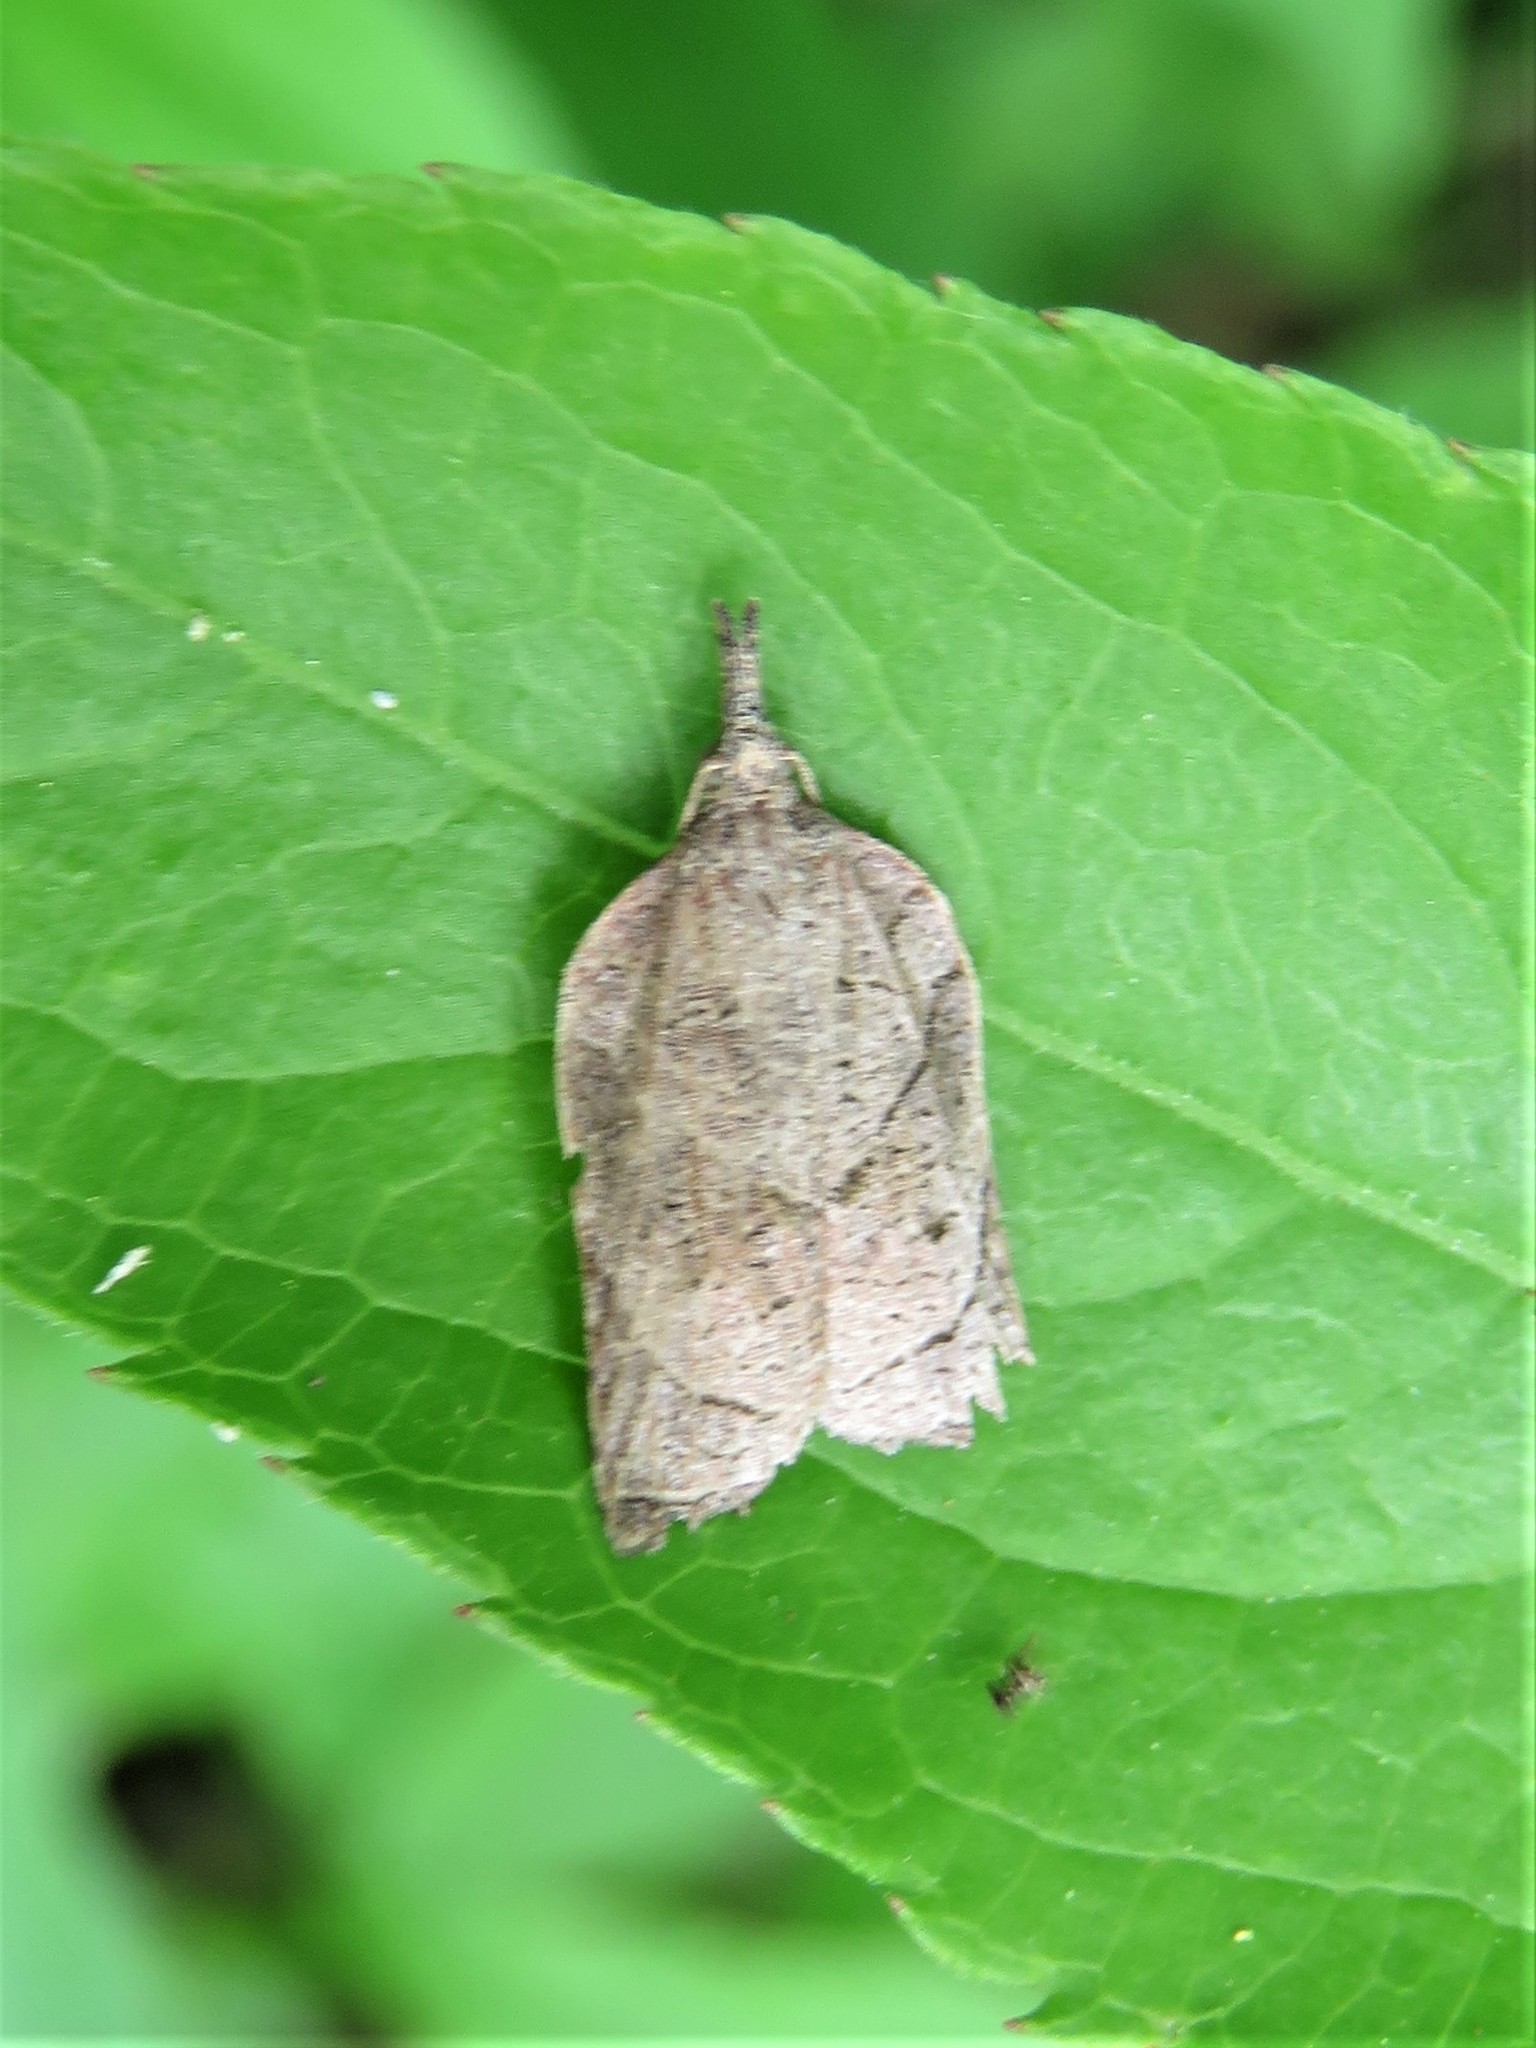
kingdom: Animalia
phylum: Arthropoda
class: Insecta
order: Lepidoptera
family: Tortricidae
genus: Platynota
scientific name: Platynota rostrana
